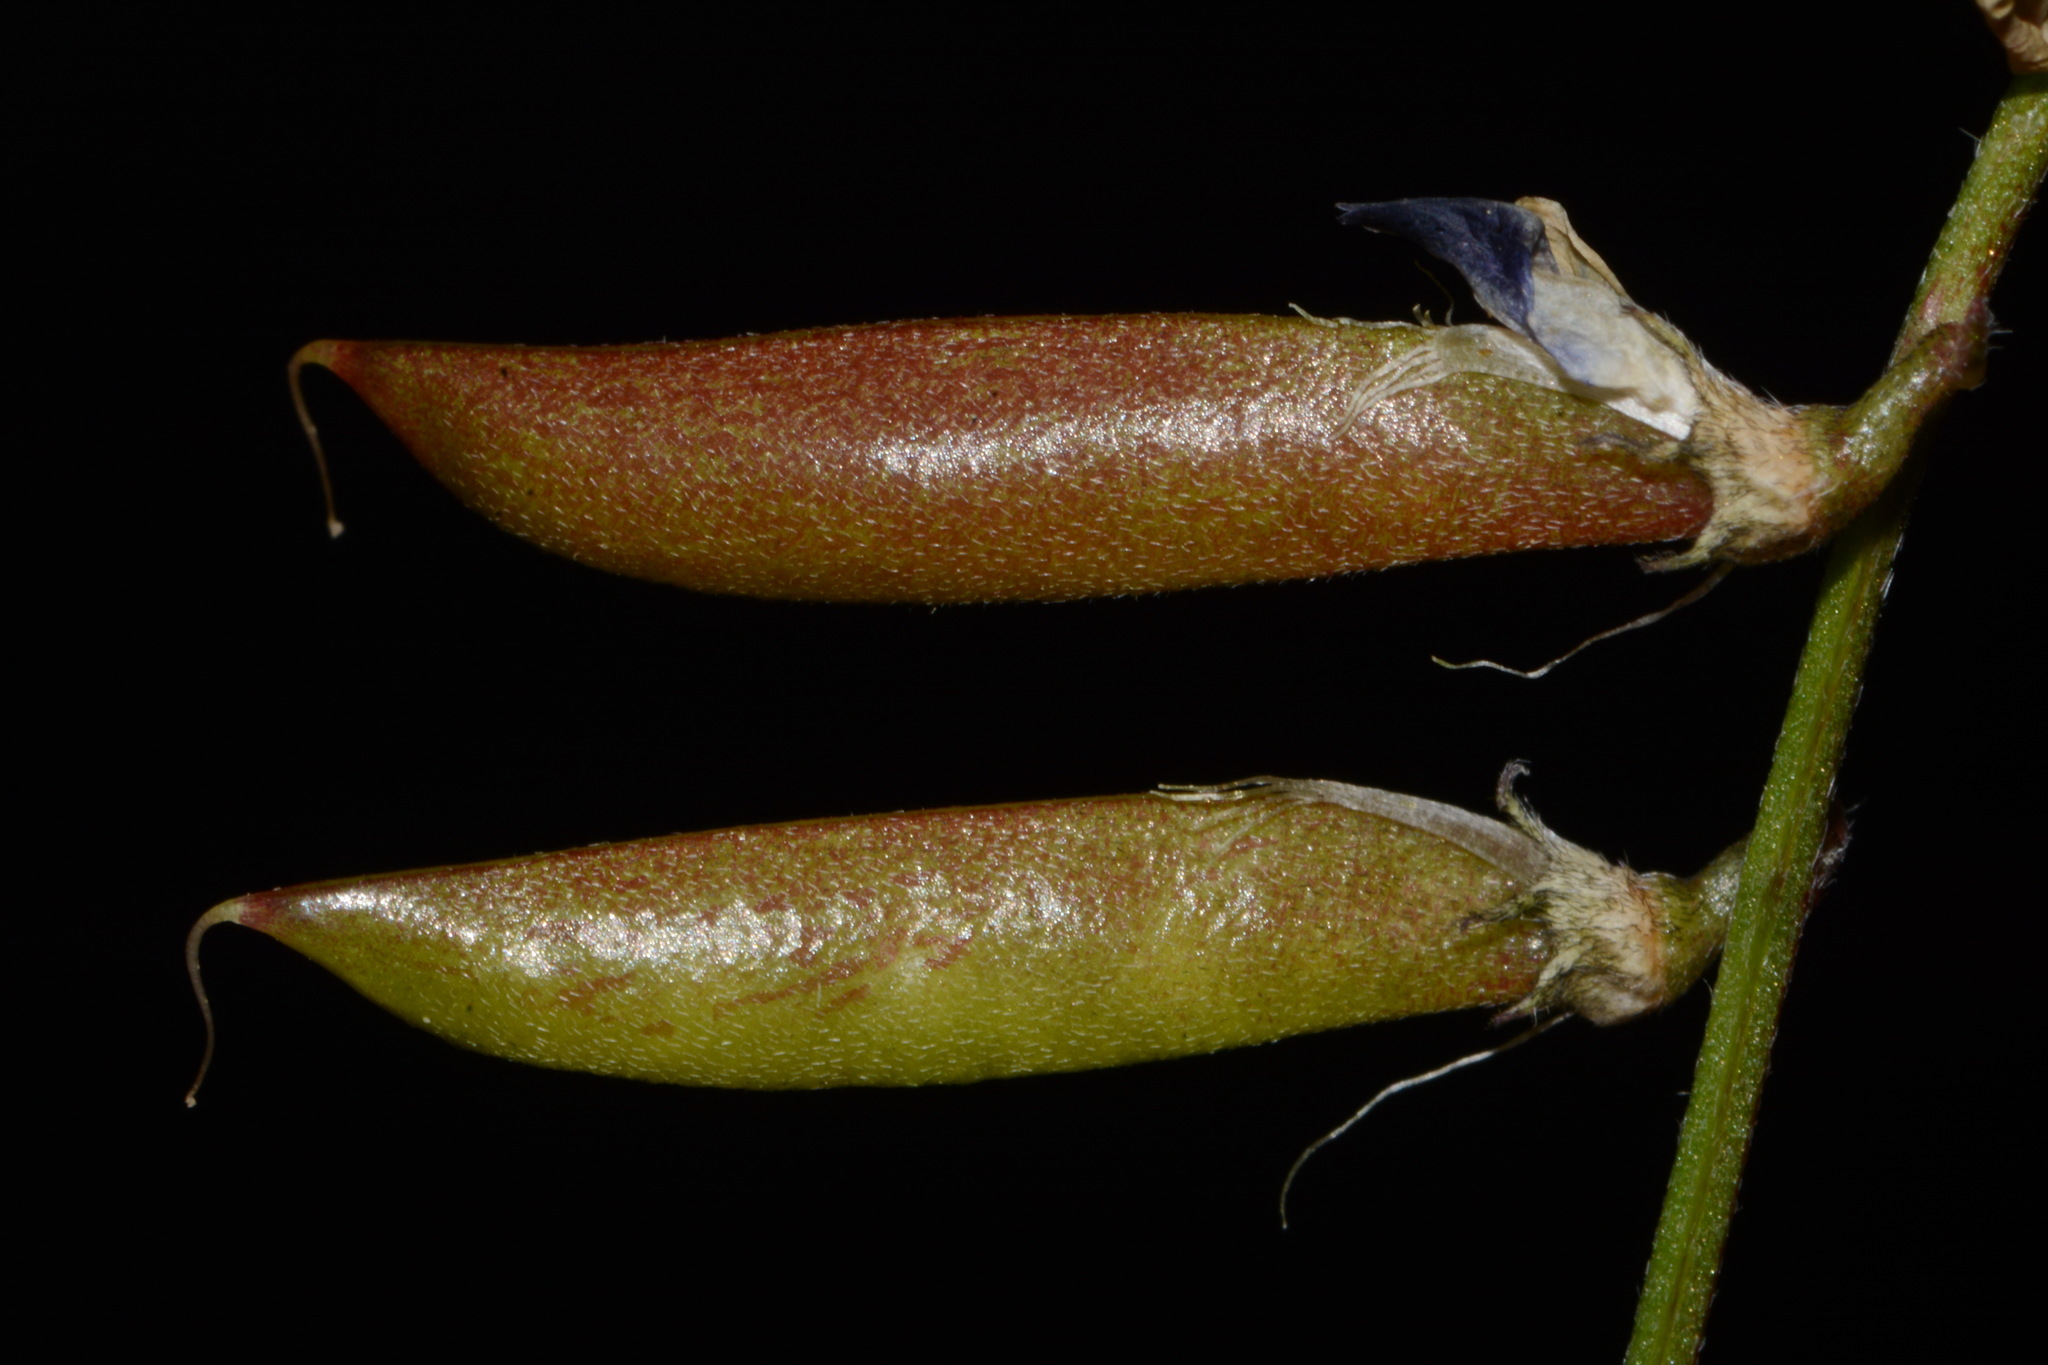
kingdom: Plantae
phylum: Tracheophyta
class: Magnoliopsida
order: Fabales
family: Fabaceae
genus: Astragalus
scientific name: Astragalus miser
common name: Timber milkvetch
